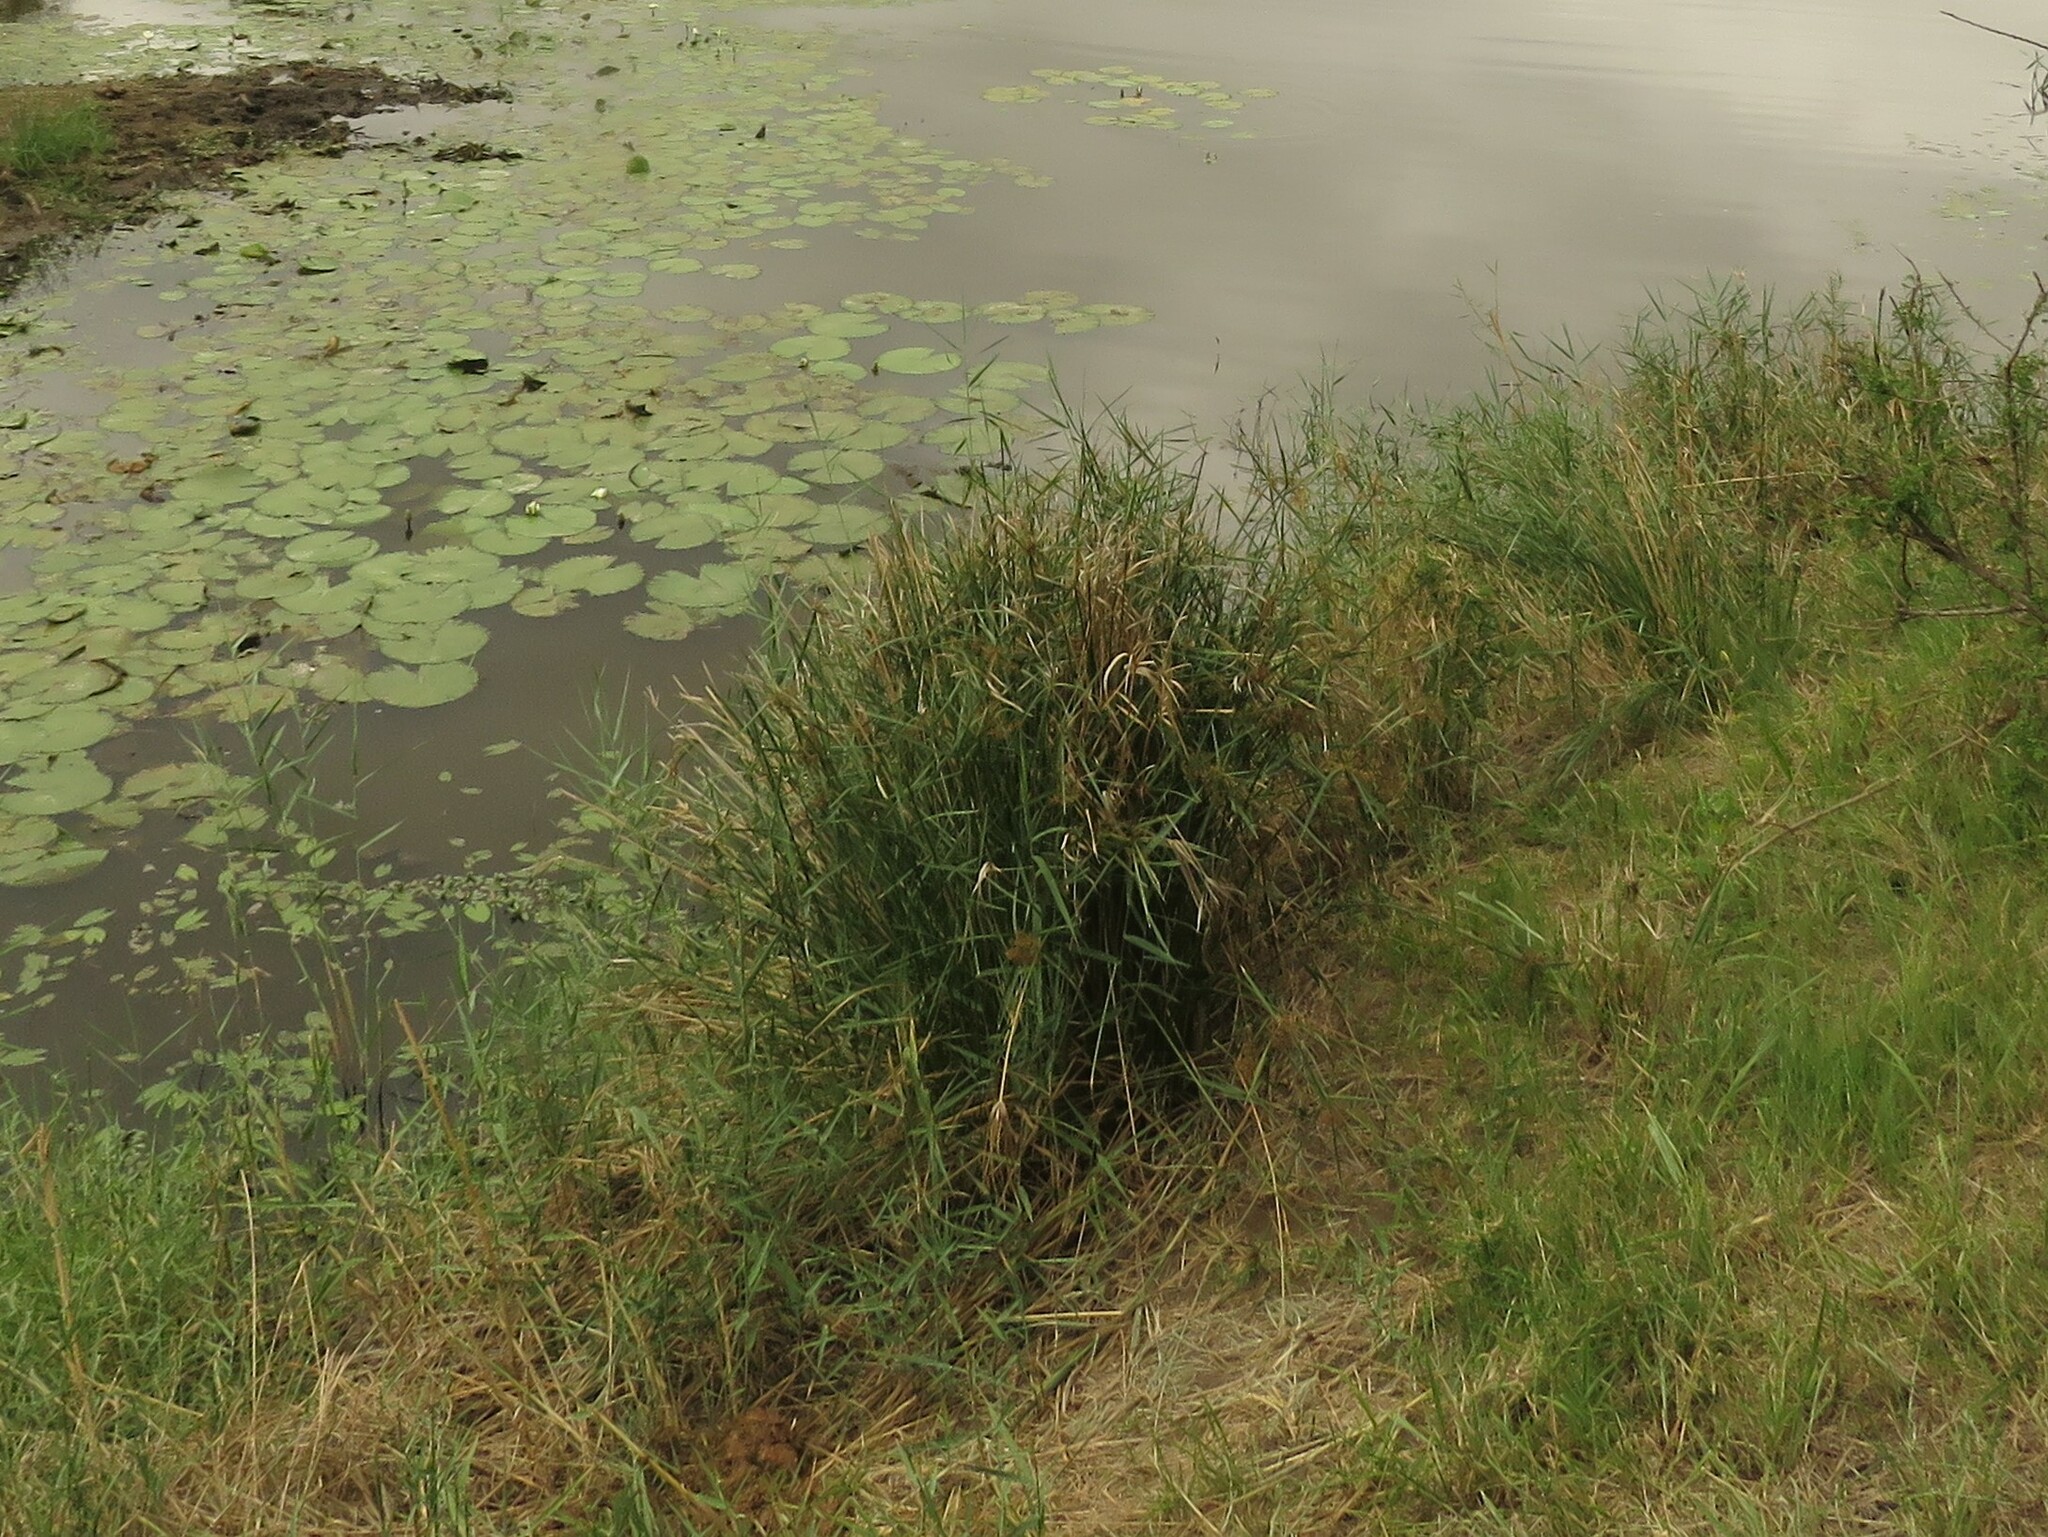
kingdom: Plantae
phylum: Tracheophyta
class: Liliopsida
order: Poales
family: Cyperaceae
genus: Cyperus
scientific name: Cyperus alternifolius
